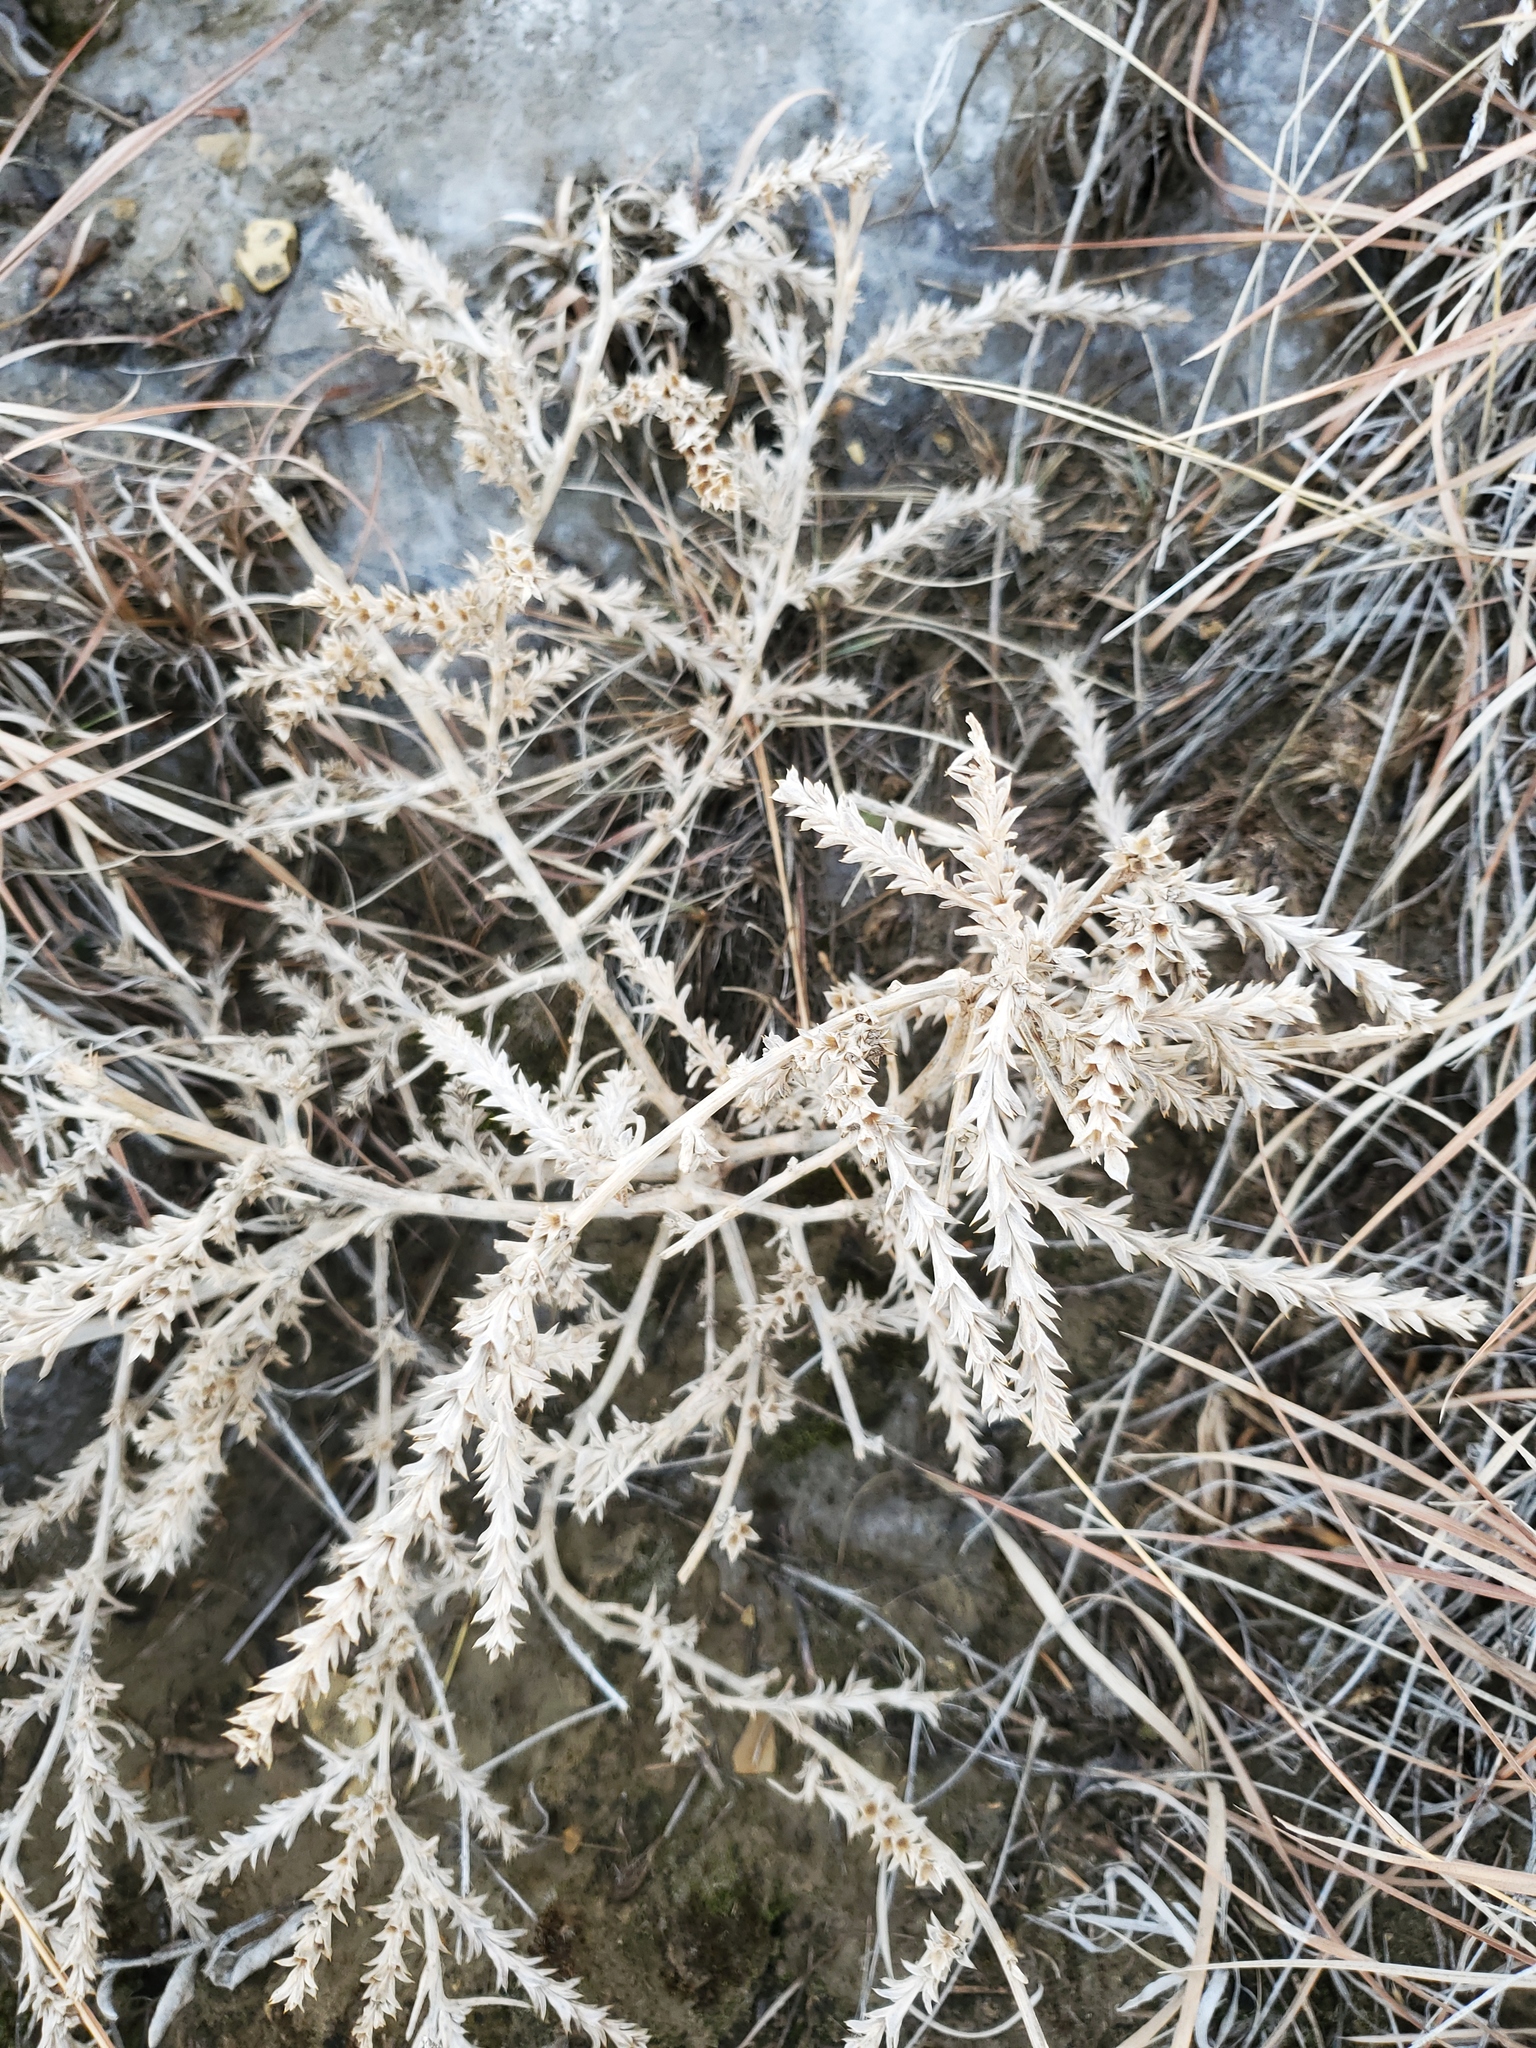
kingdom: Plantae
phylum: Tracheophyta
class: Magnoliopsida
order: Caryophyllales
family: Amaranthaceae
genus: Salsola
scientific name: Salsola tragus
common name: Prickly russian thistle
